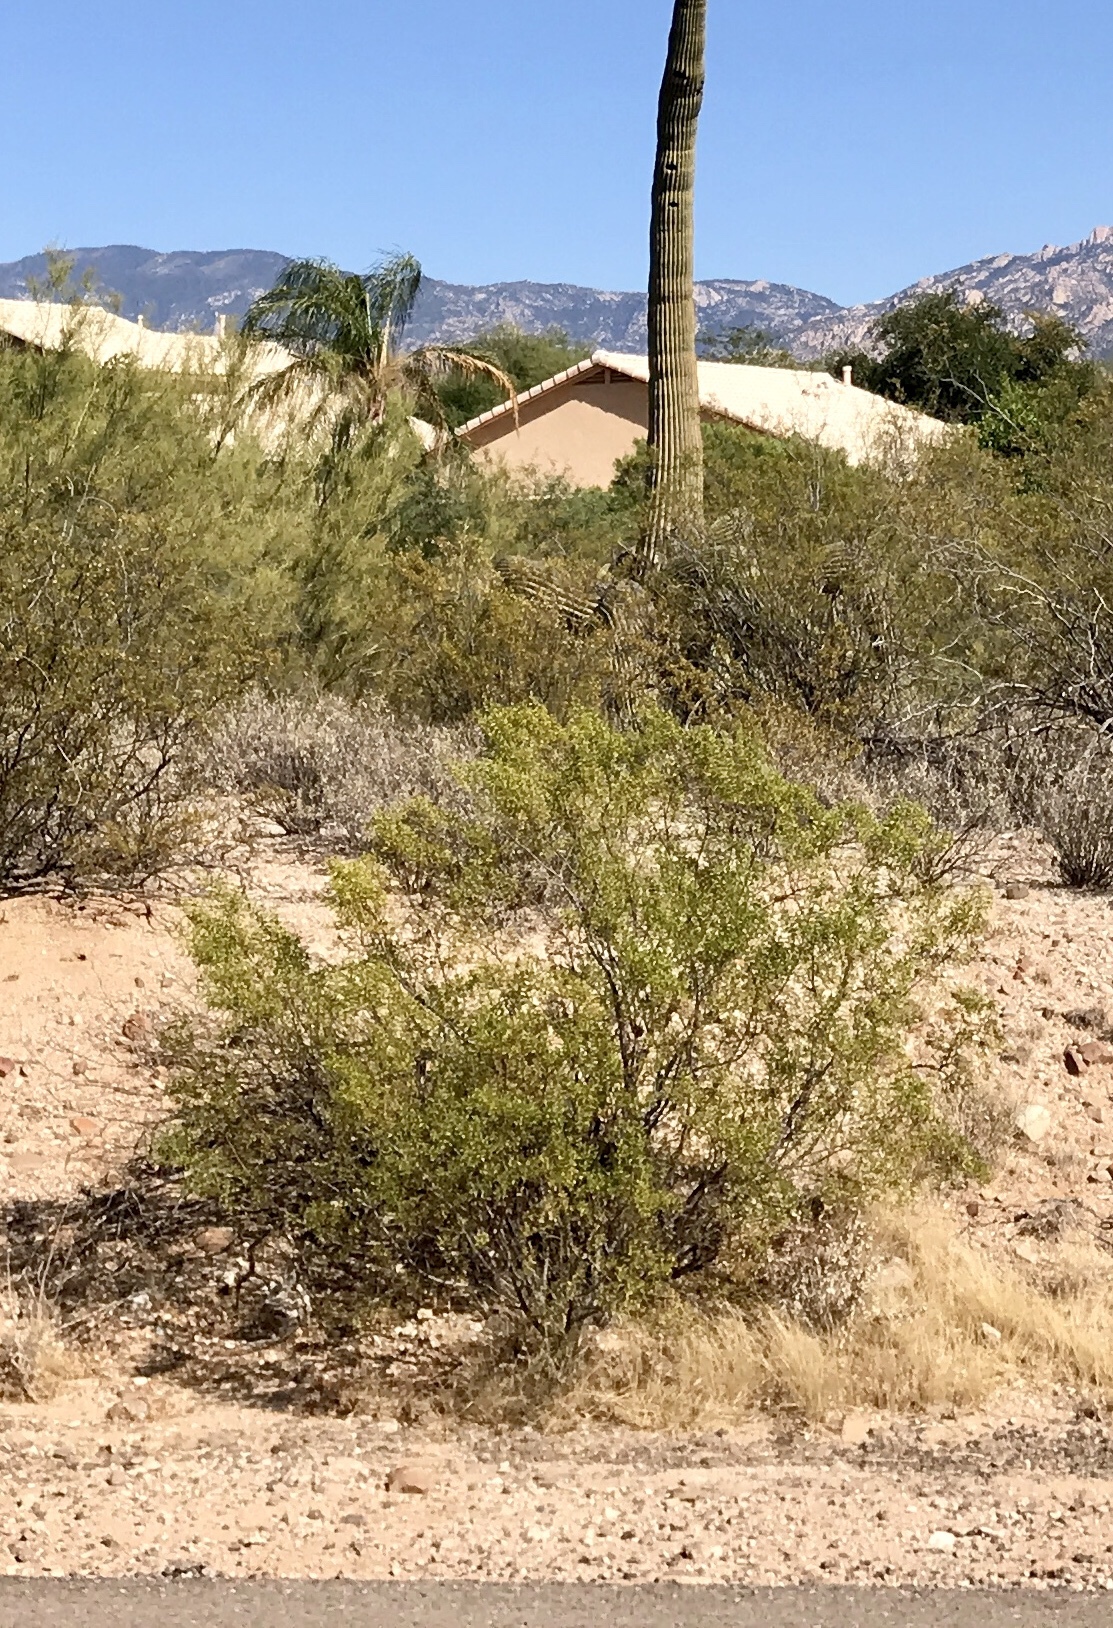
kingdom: Plantae
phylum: Tracheophyta
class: Magnoliopsida
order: Zygophyllales
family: Zygophyllaceae
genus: Larrea
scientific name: Larrea tridentata
